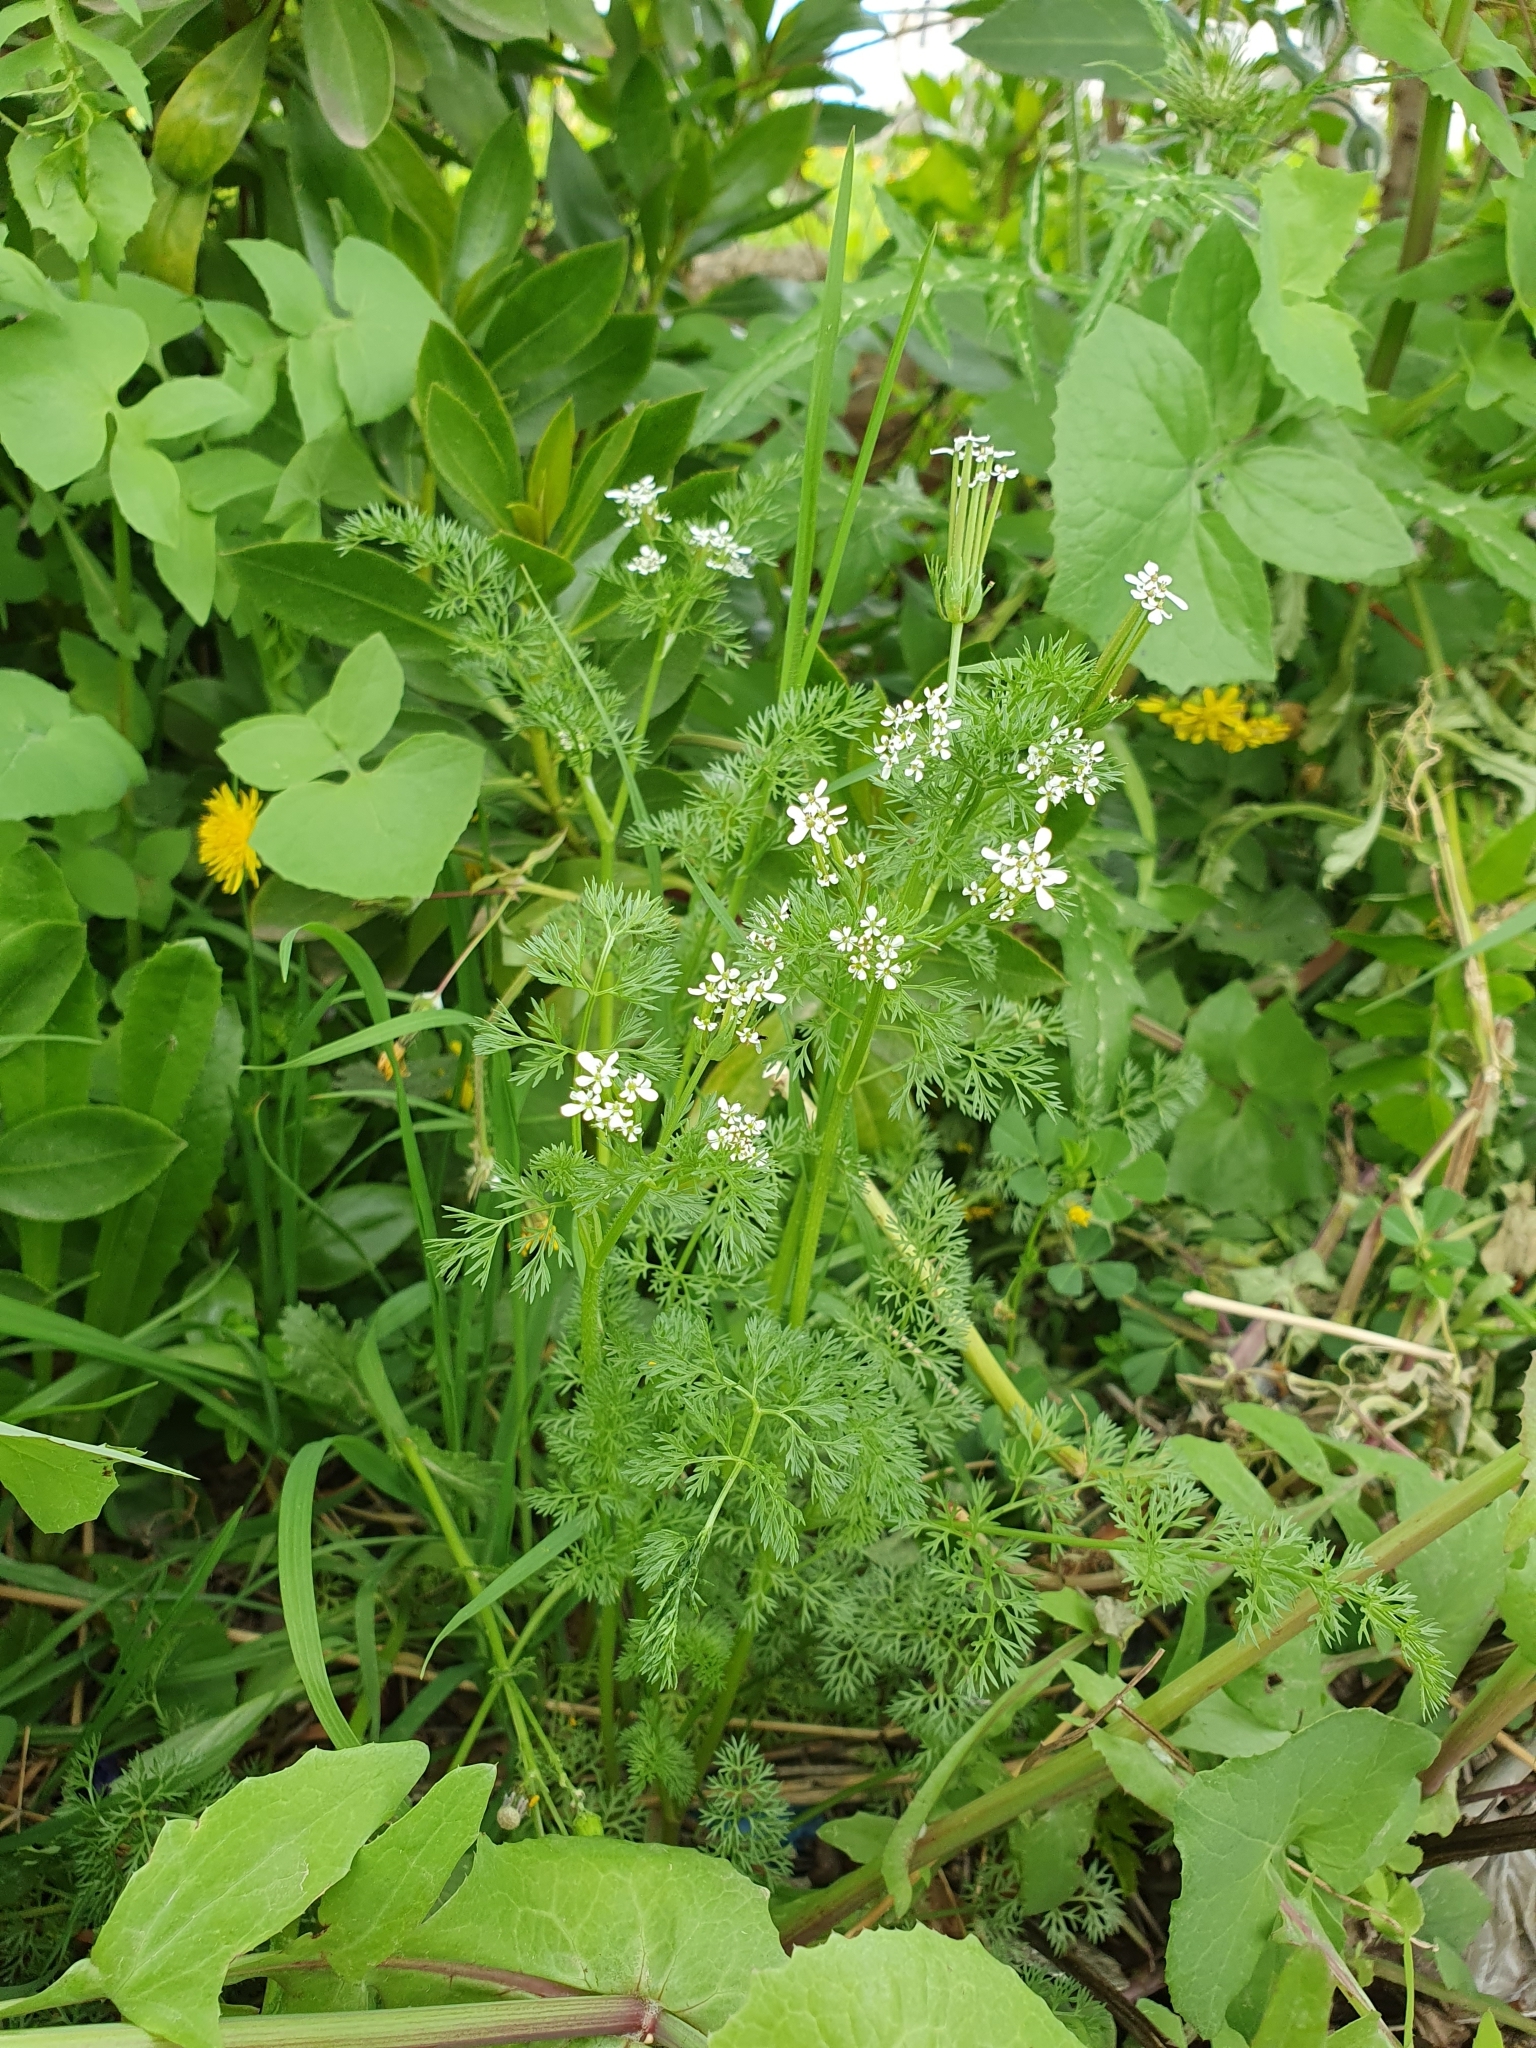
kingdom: Plantae
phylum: Tracheophyta
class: Magnoliopsida
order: Apiales
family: Apiaceae
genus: Scandix
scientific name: Scandix pecten-veneris
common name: Shepherd's-needle
